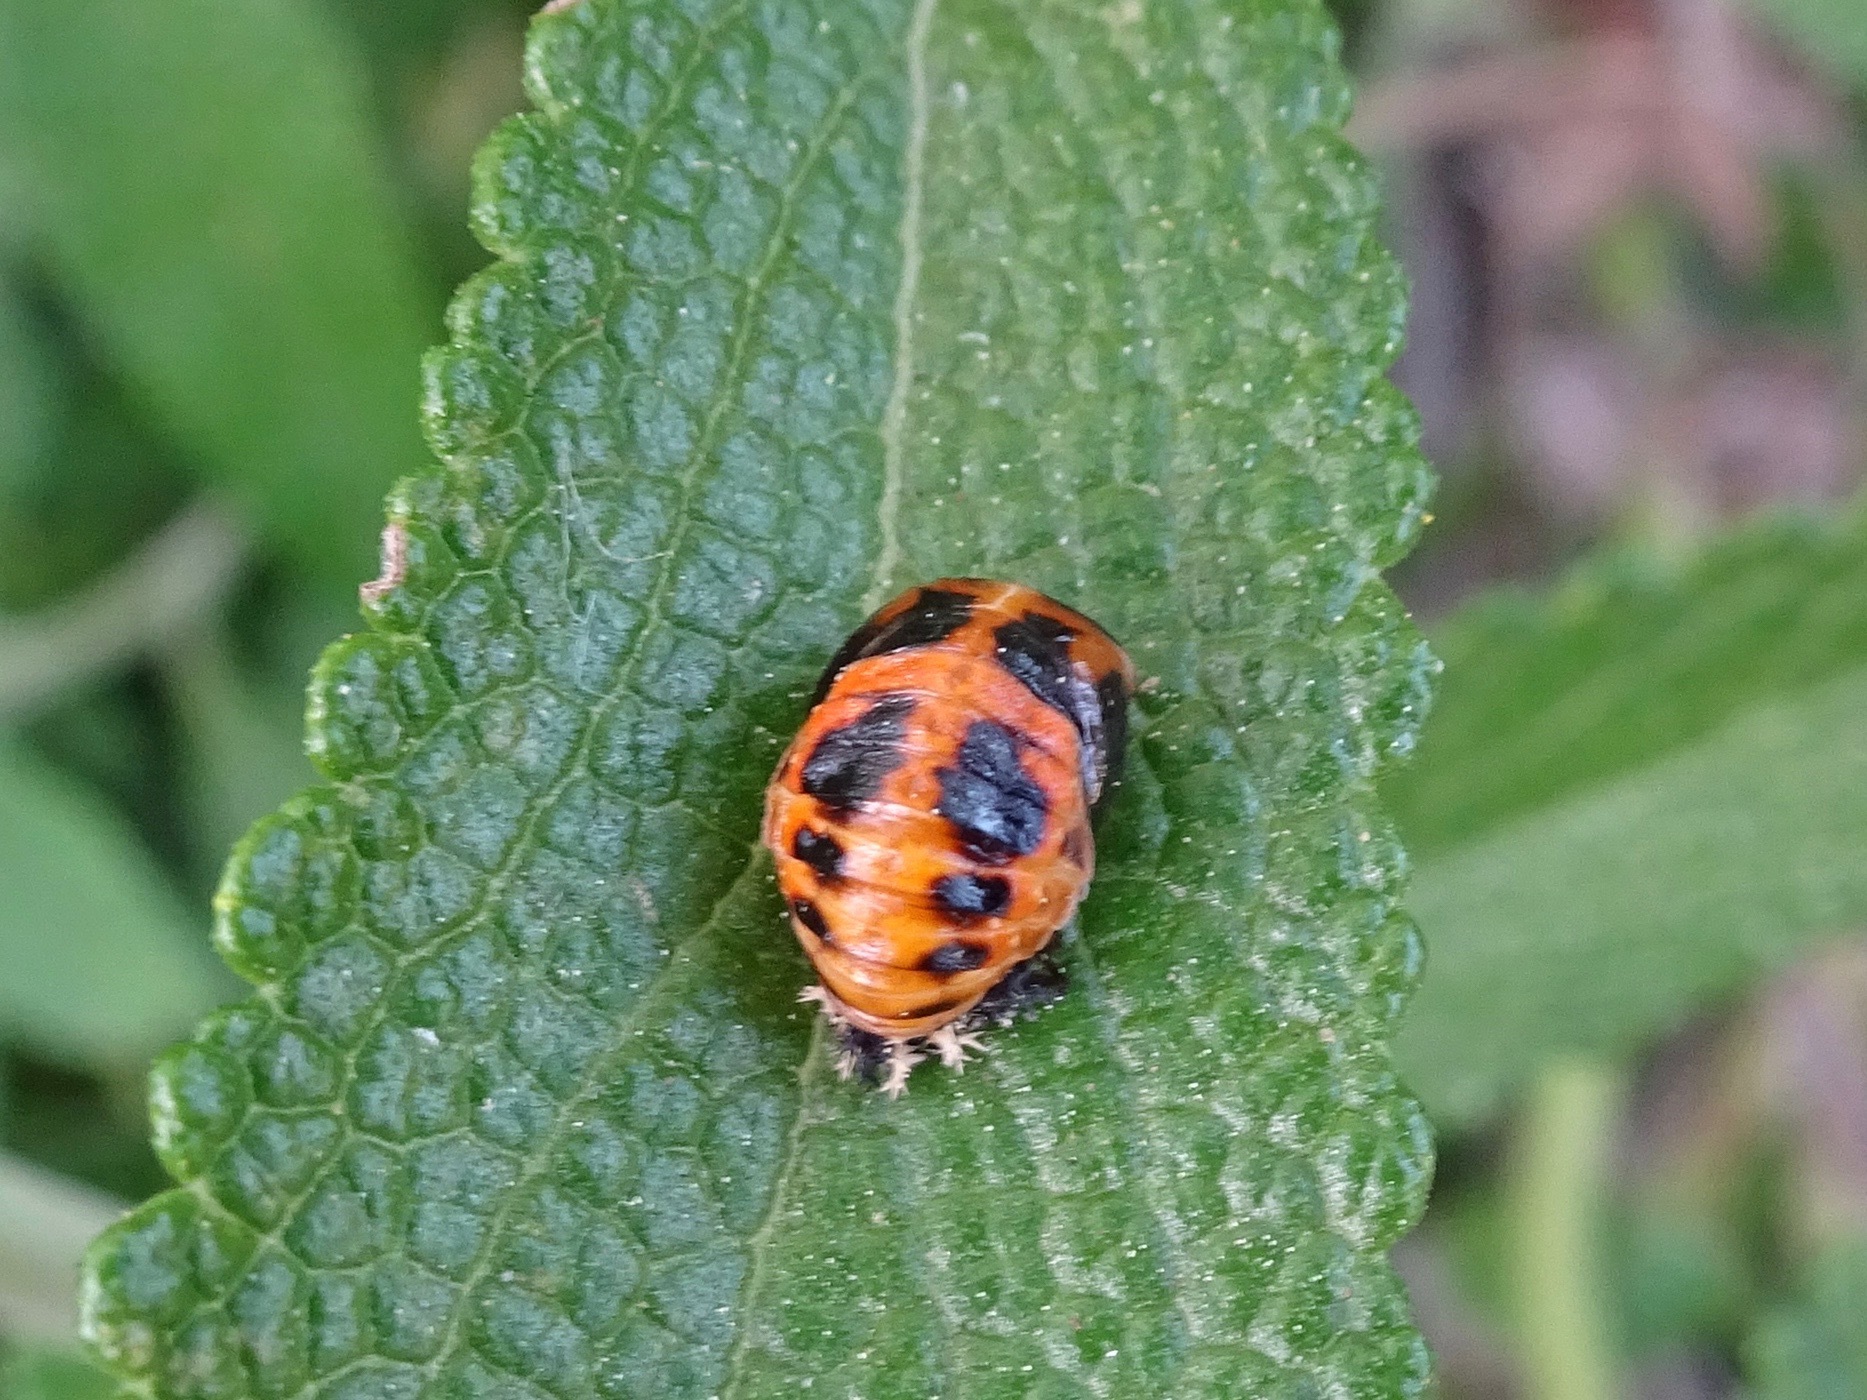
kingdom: Animalia
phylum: Arthropoda
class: Insecta
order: Coleoptera
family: Coccinellidae
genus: Harmonia
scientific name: Harmonia axyridis
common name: Harlequin ladybird
